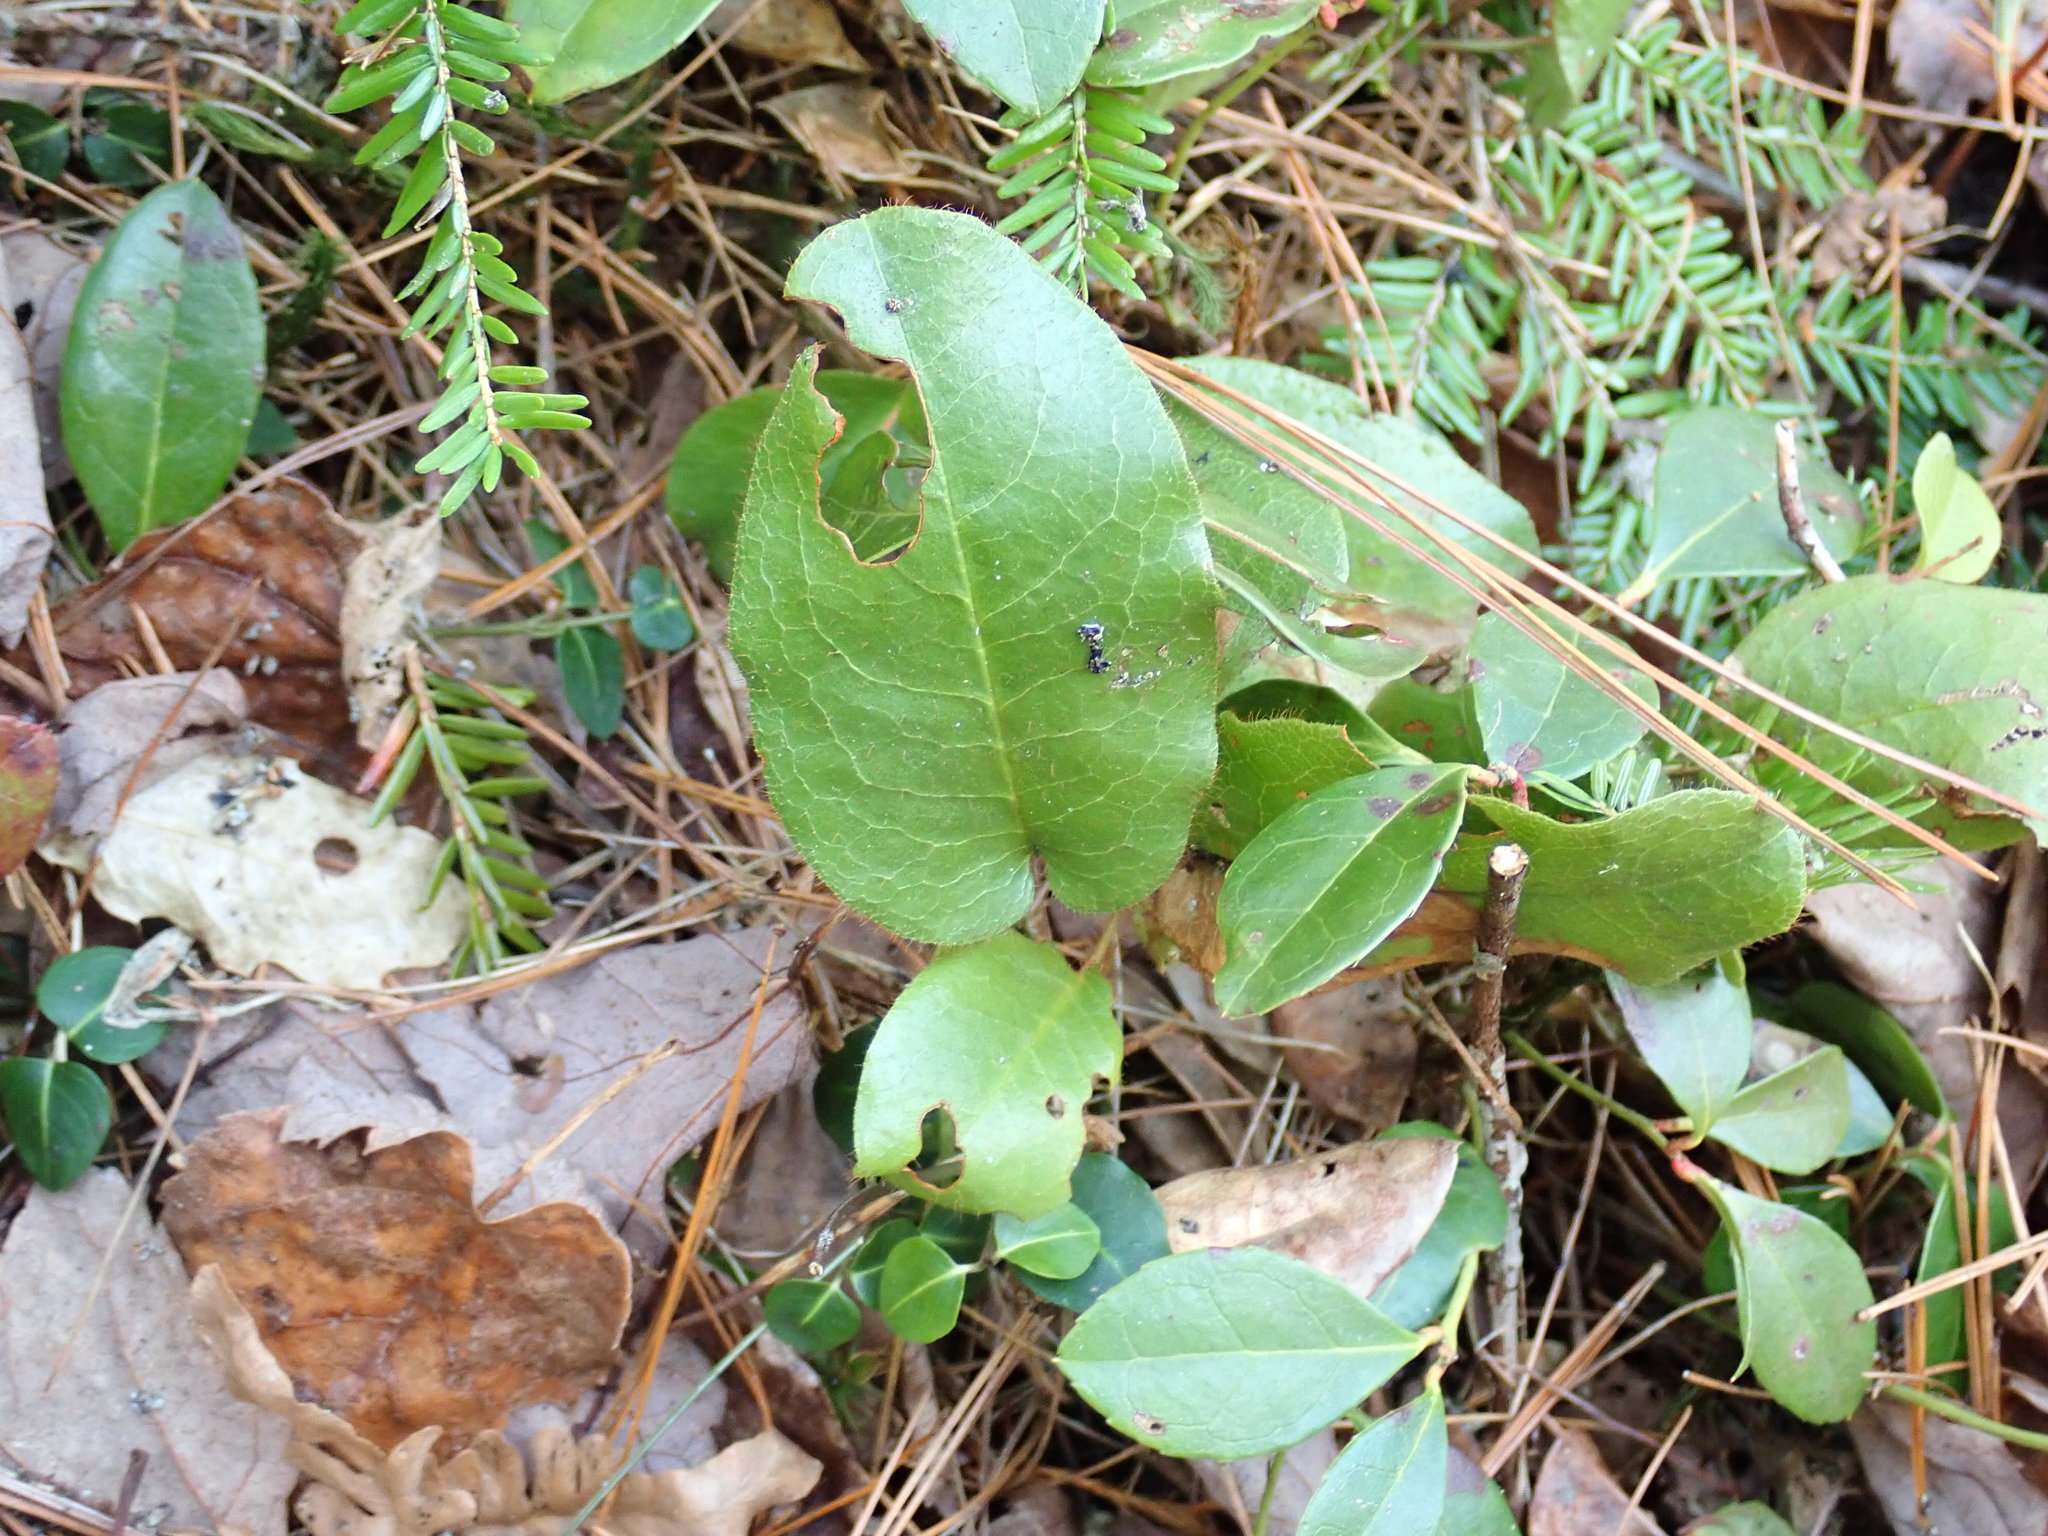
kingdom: Plantae
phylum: Tracheophyta
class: Magnoliopsida
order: Ericales
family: Ericaceae
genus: Epigaea
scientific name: Epigaea repens
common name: Gravelroot
